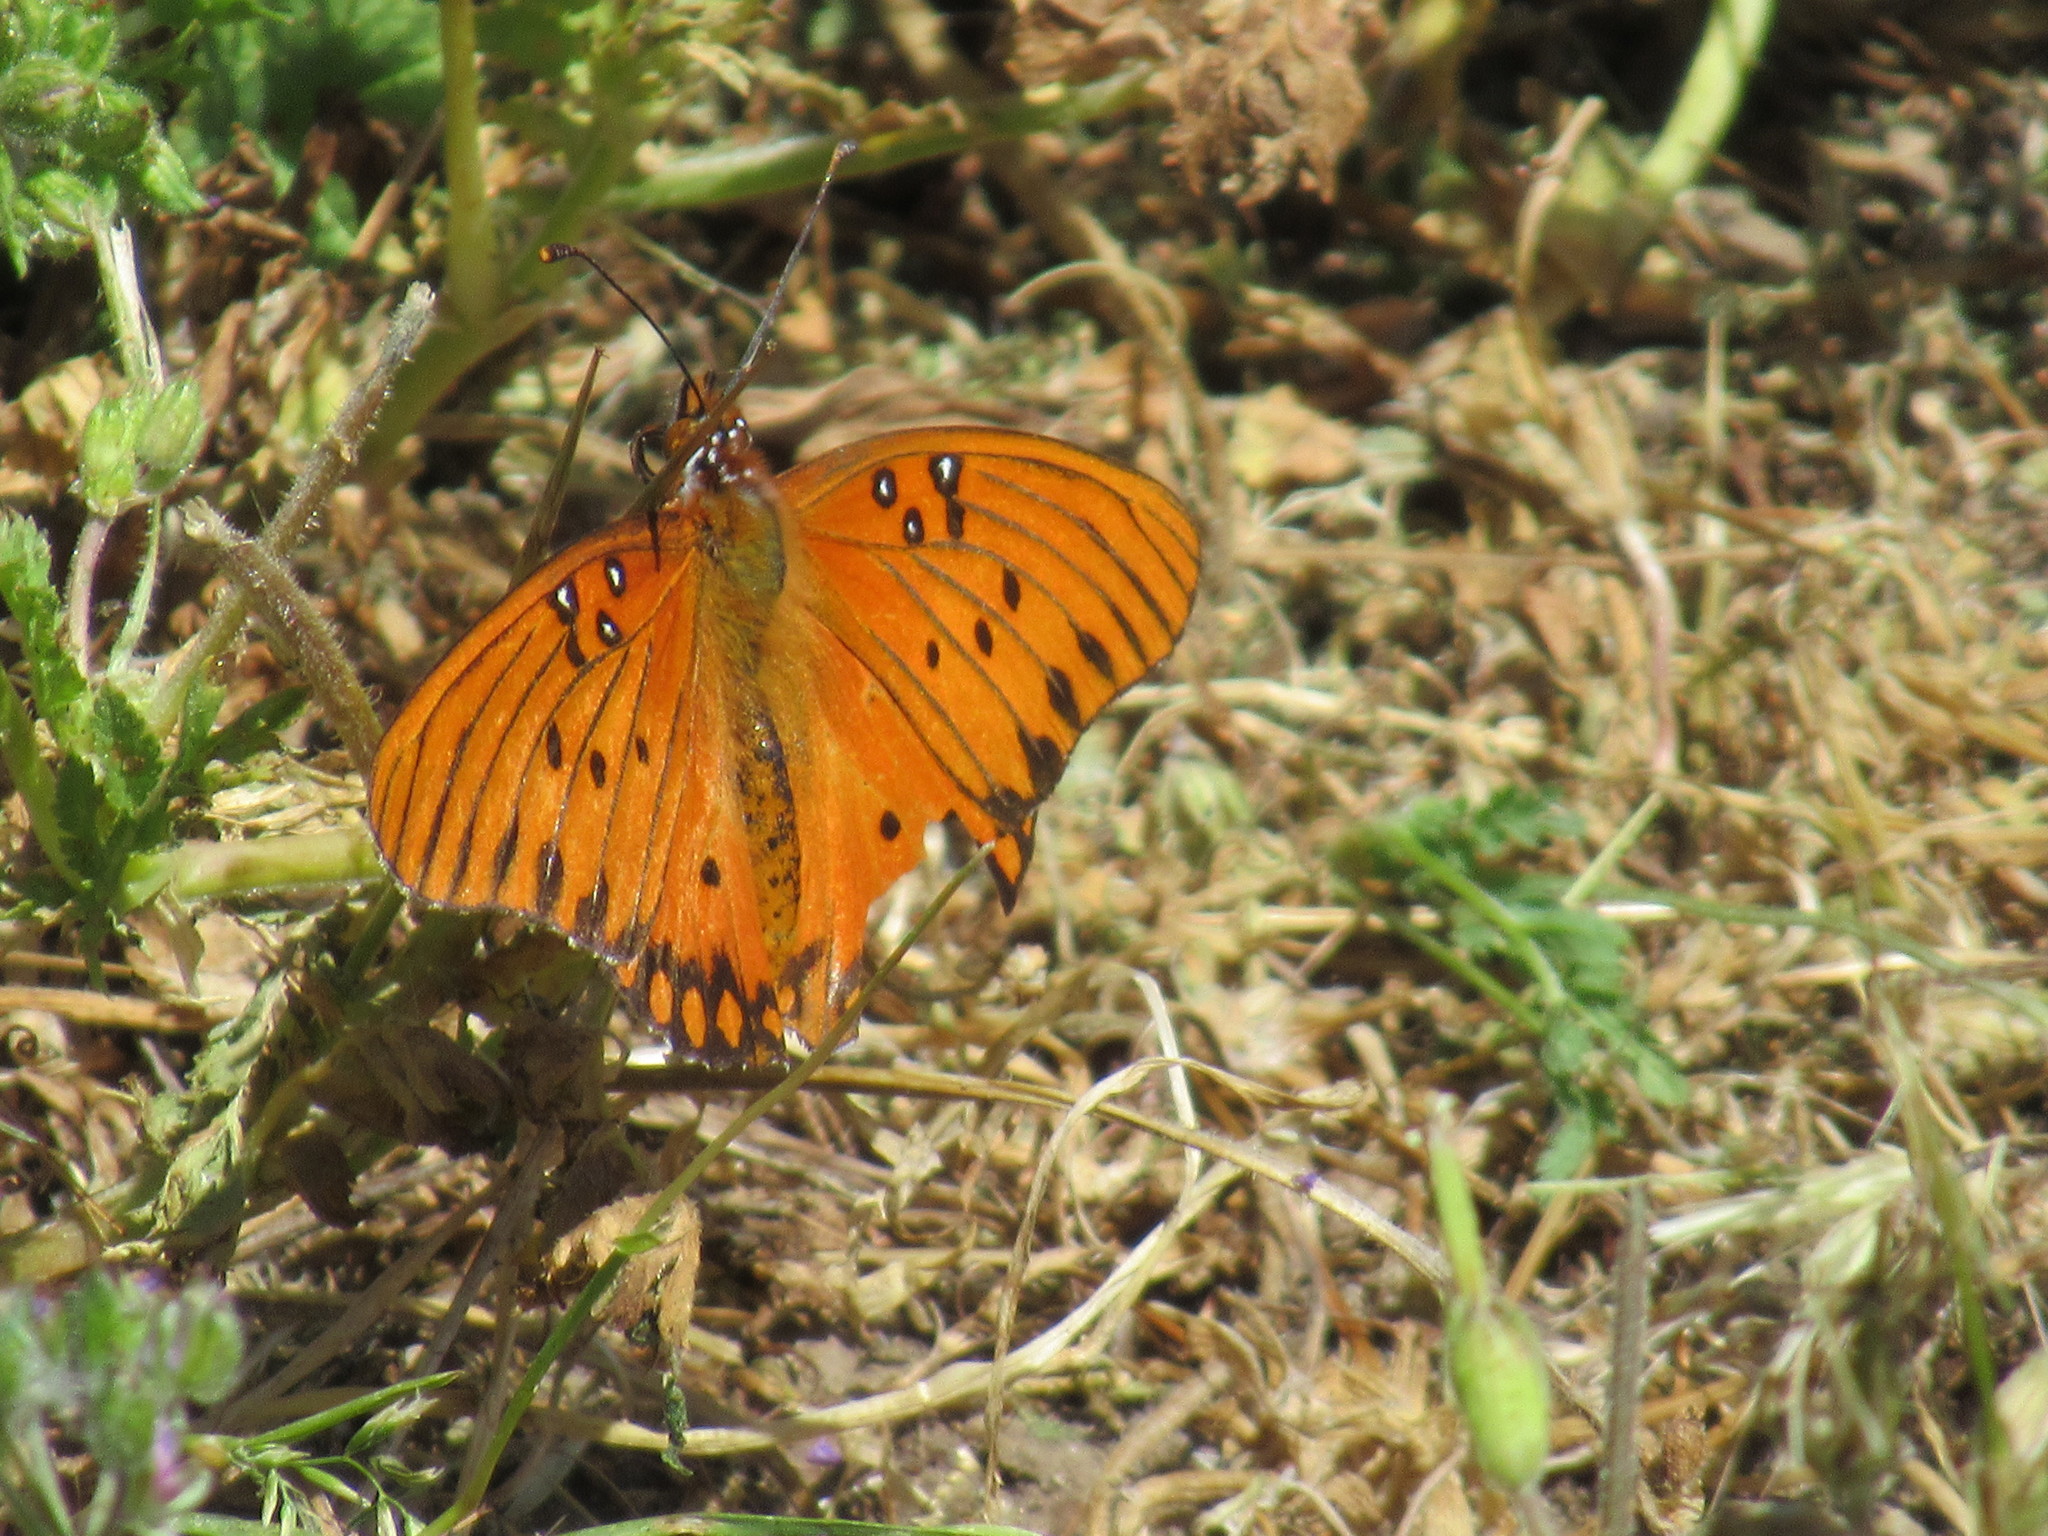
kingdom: Animalia
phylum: Arthropoda
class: Insecta
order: Lepidoptera
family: Nymphalidae
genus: Dione
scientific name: Dione vanillae
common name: Gulf fritillary
